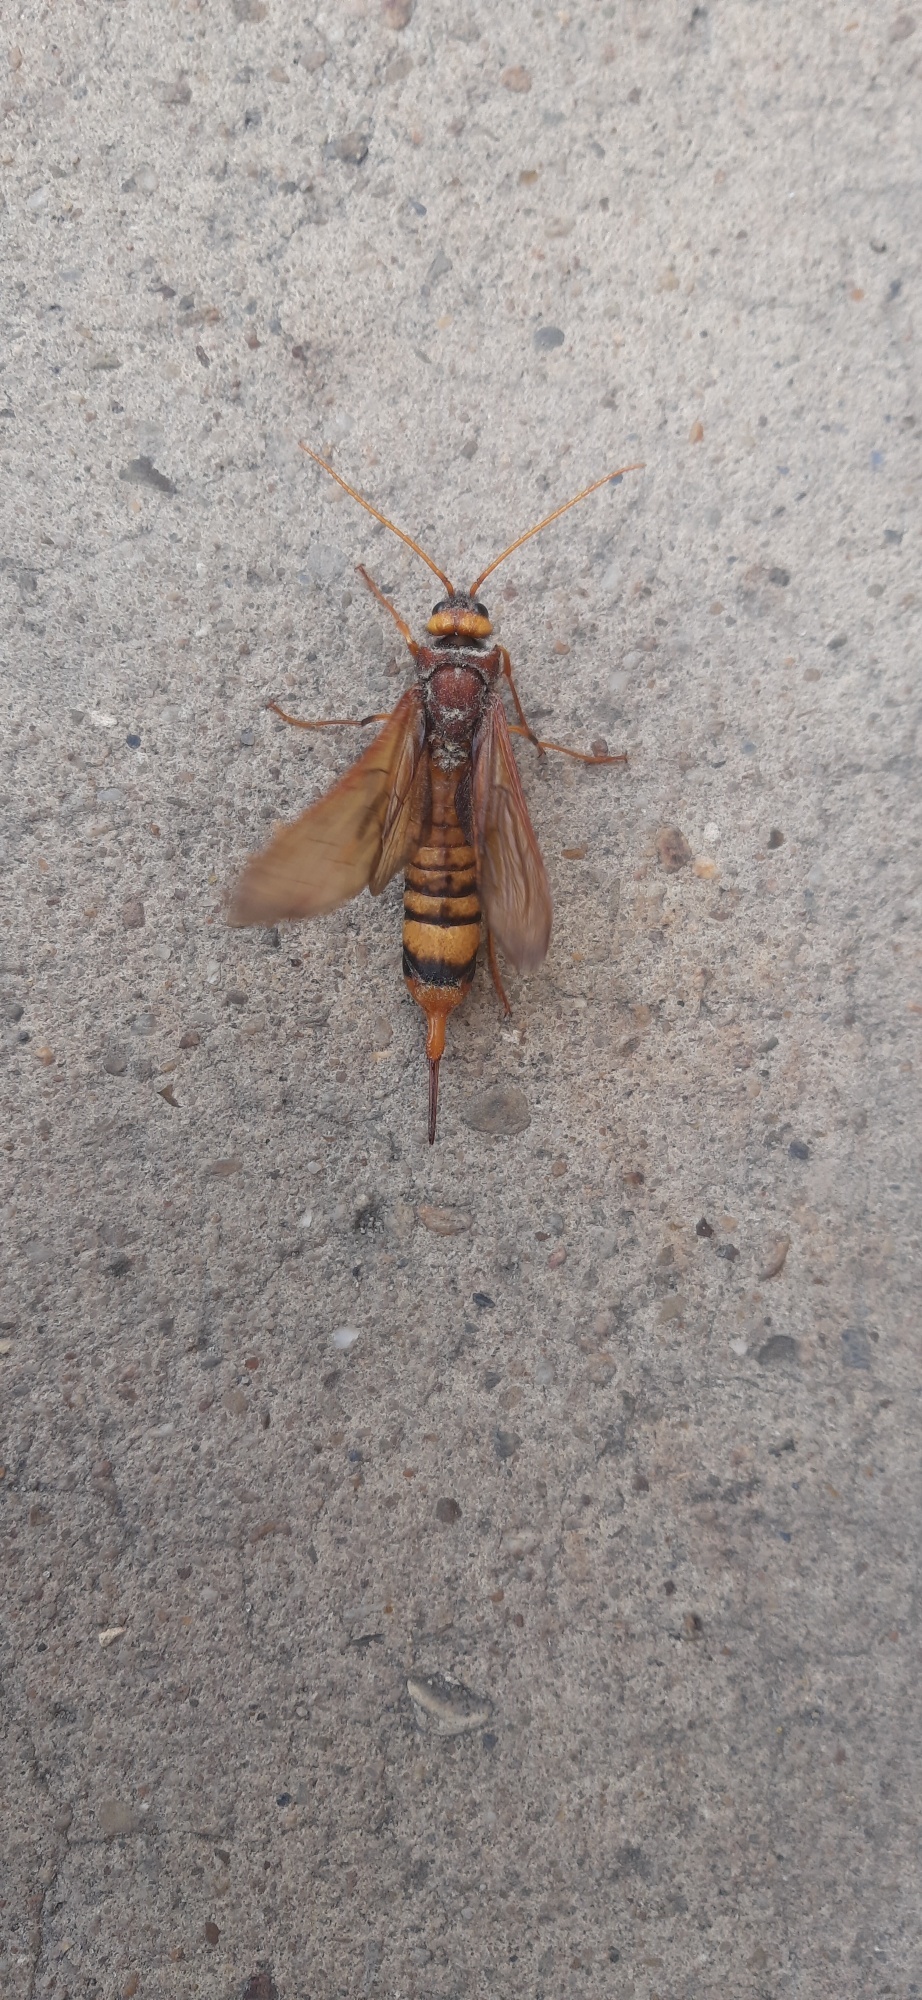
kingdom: Animalia
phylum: Arthropoda
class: Insecta
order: Hymenoptera
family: Siricidae
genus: Urocerus
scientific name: Urocerus augur
